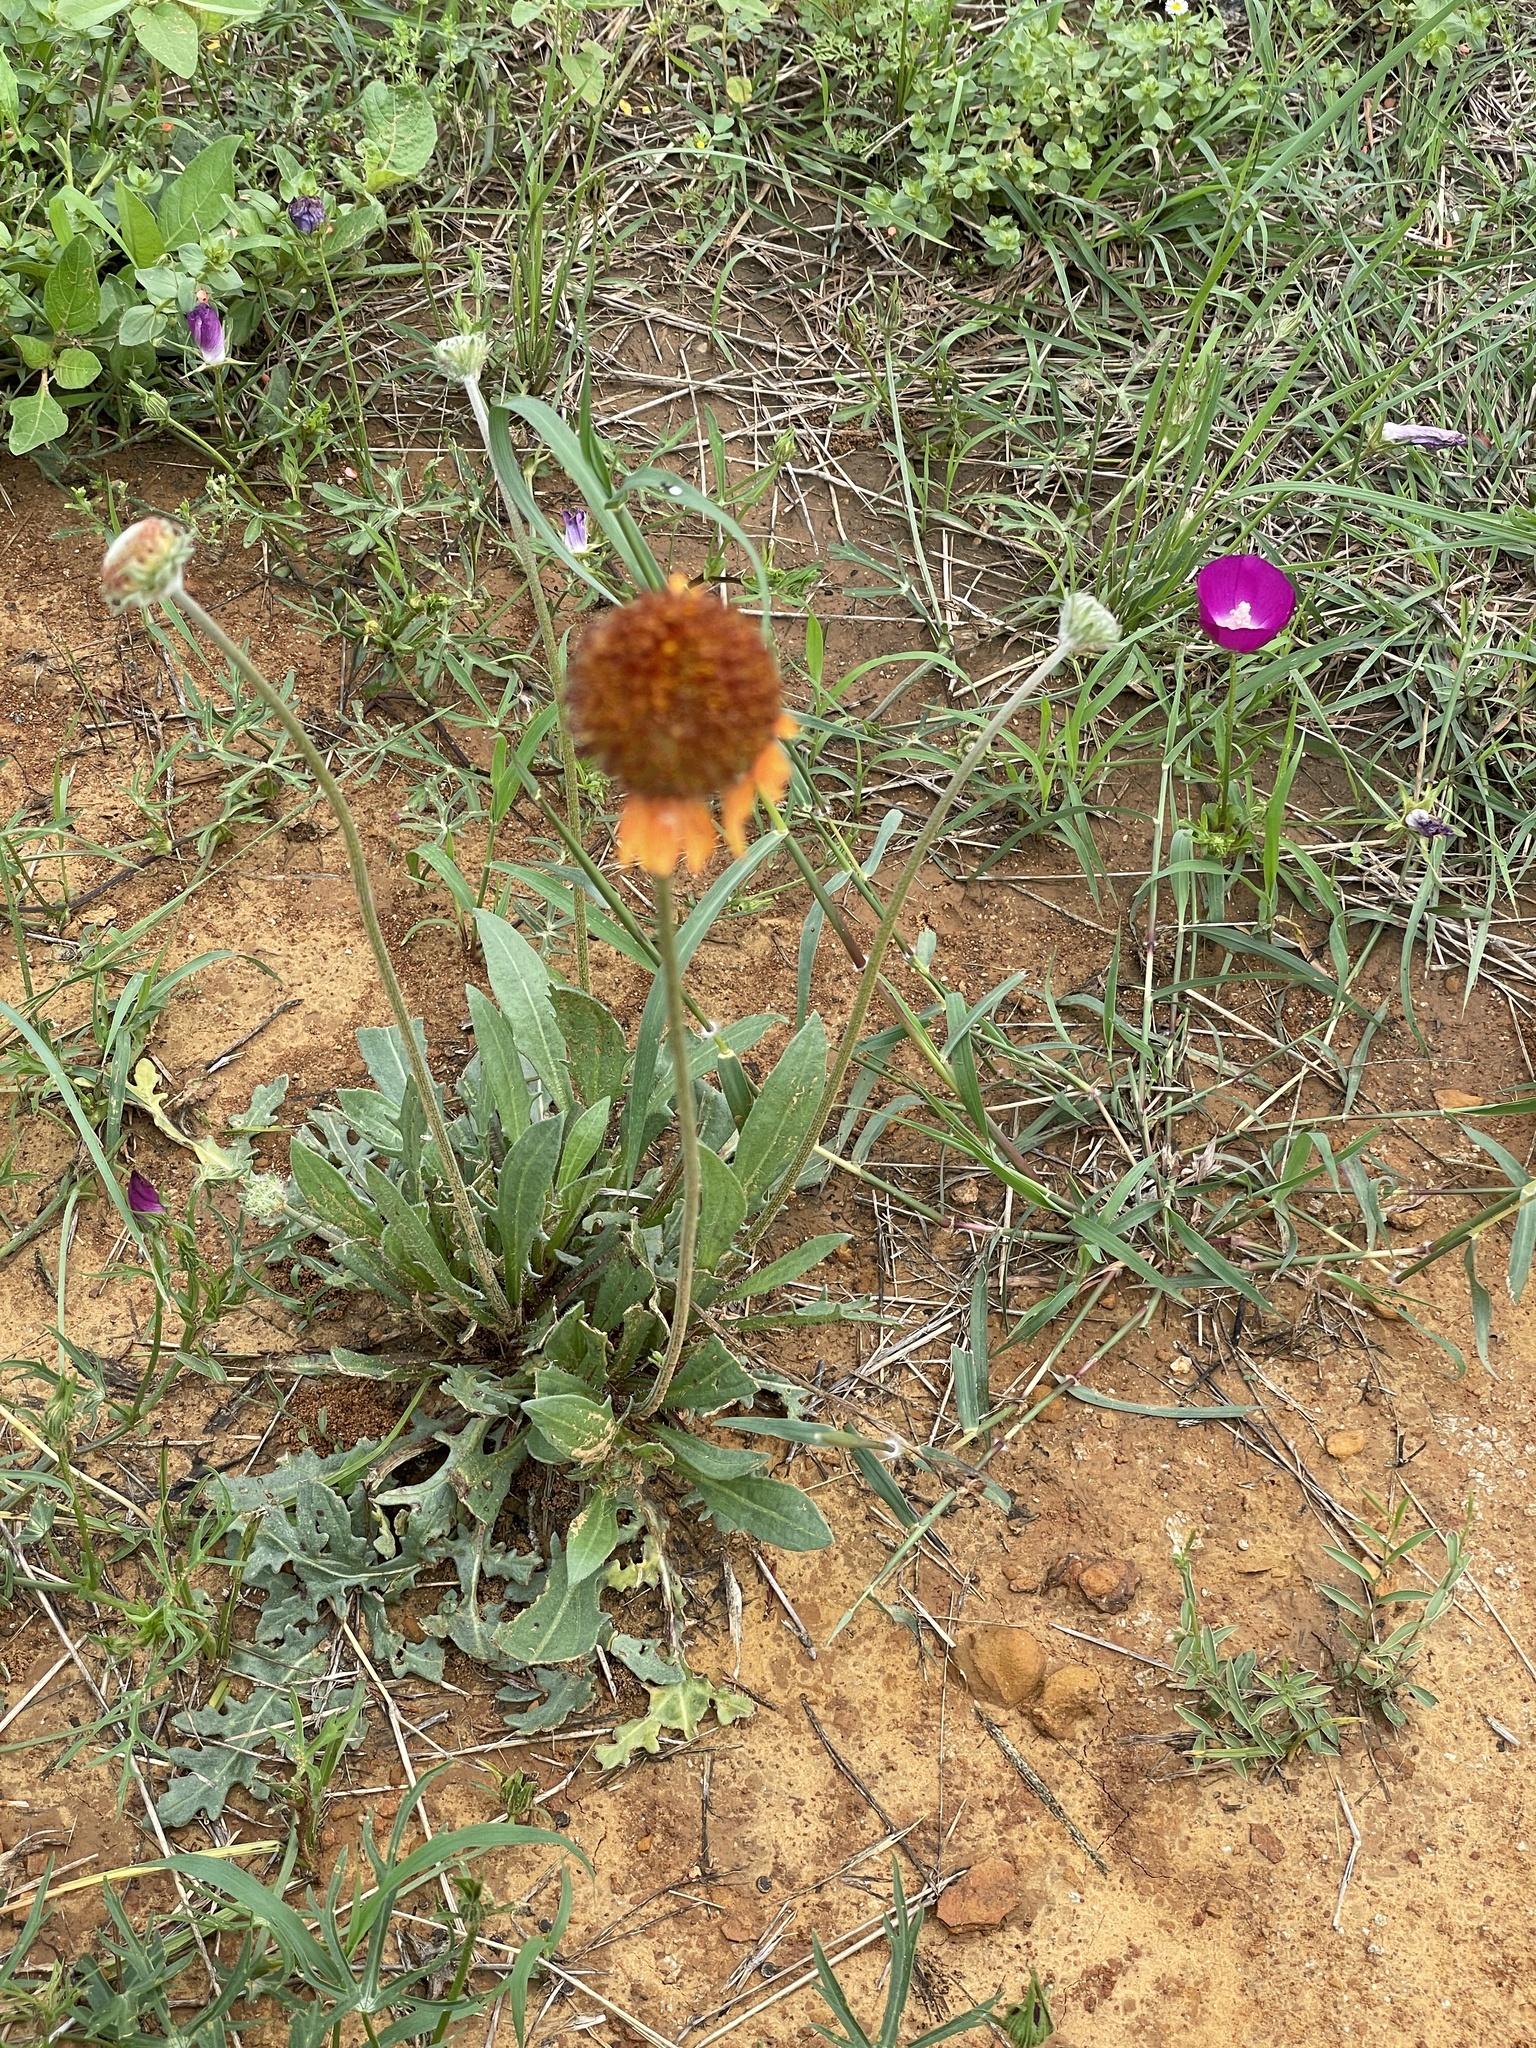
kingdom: Plantae
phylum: Tracheophyta
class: Magnoliopsida
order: Asterales
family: Asteraceae
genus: Gaillardia
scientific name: Gaillardia suavis
